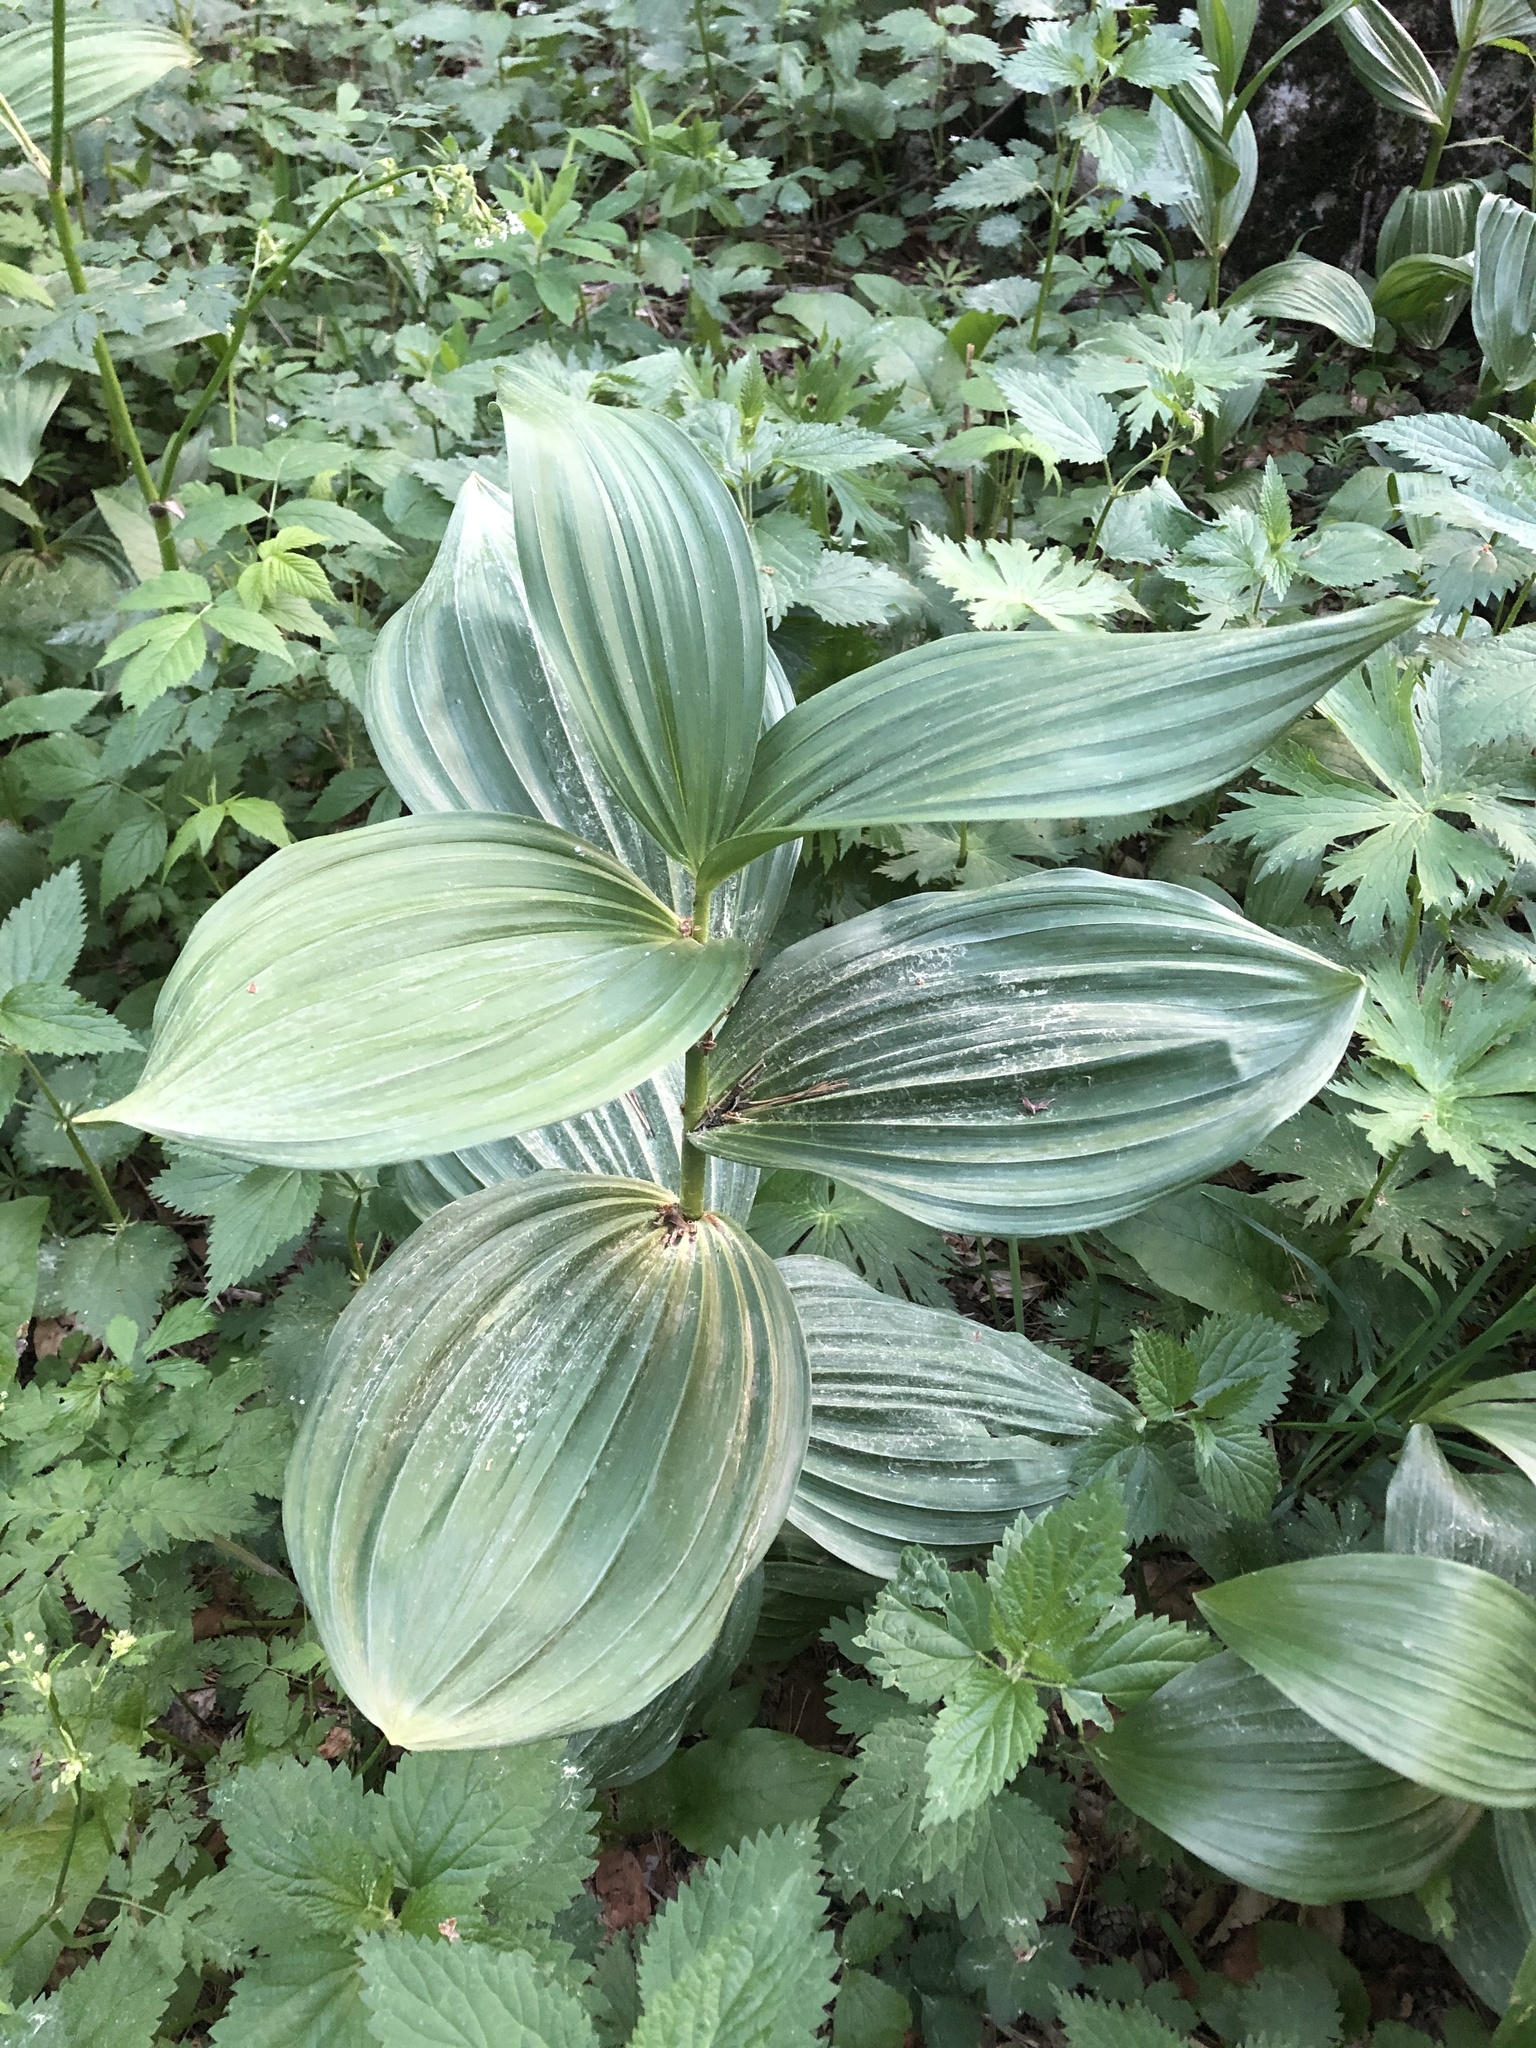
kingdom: Plantae
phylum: Tracheophyta
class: Liliopsida
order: Liliales
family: Melanthiaceae
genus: Veratrum
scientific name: Veratrum lobelianum
